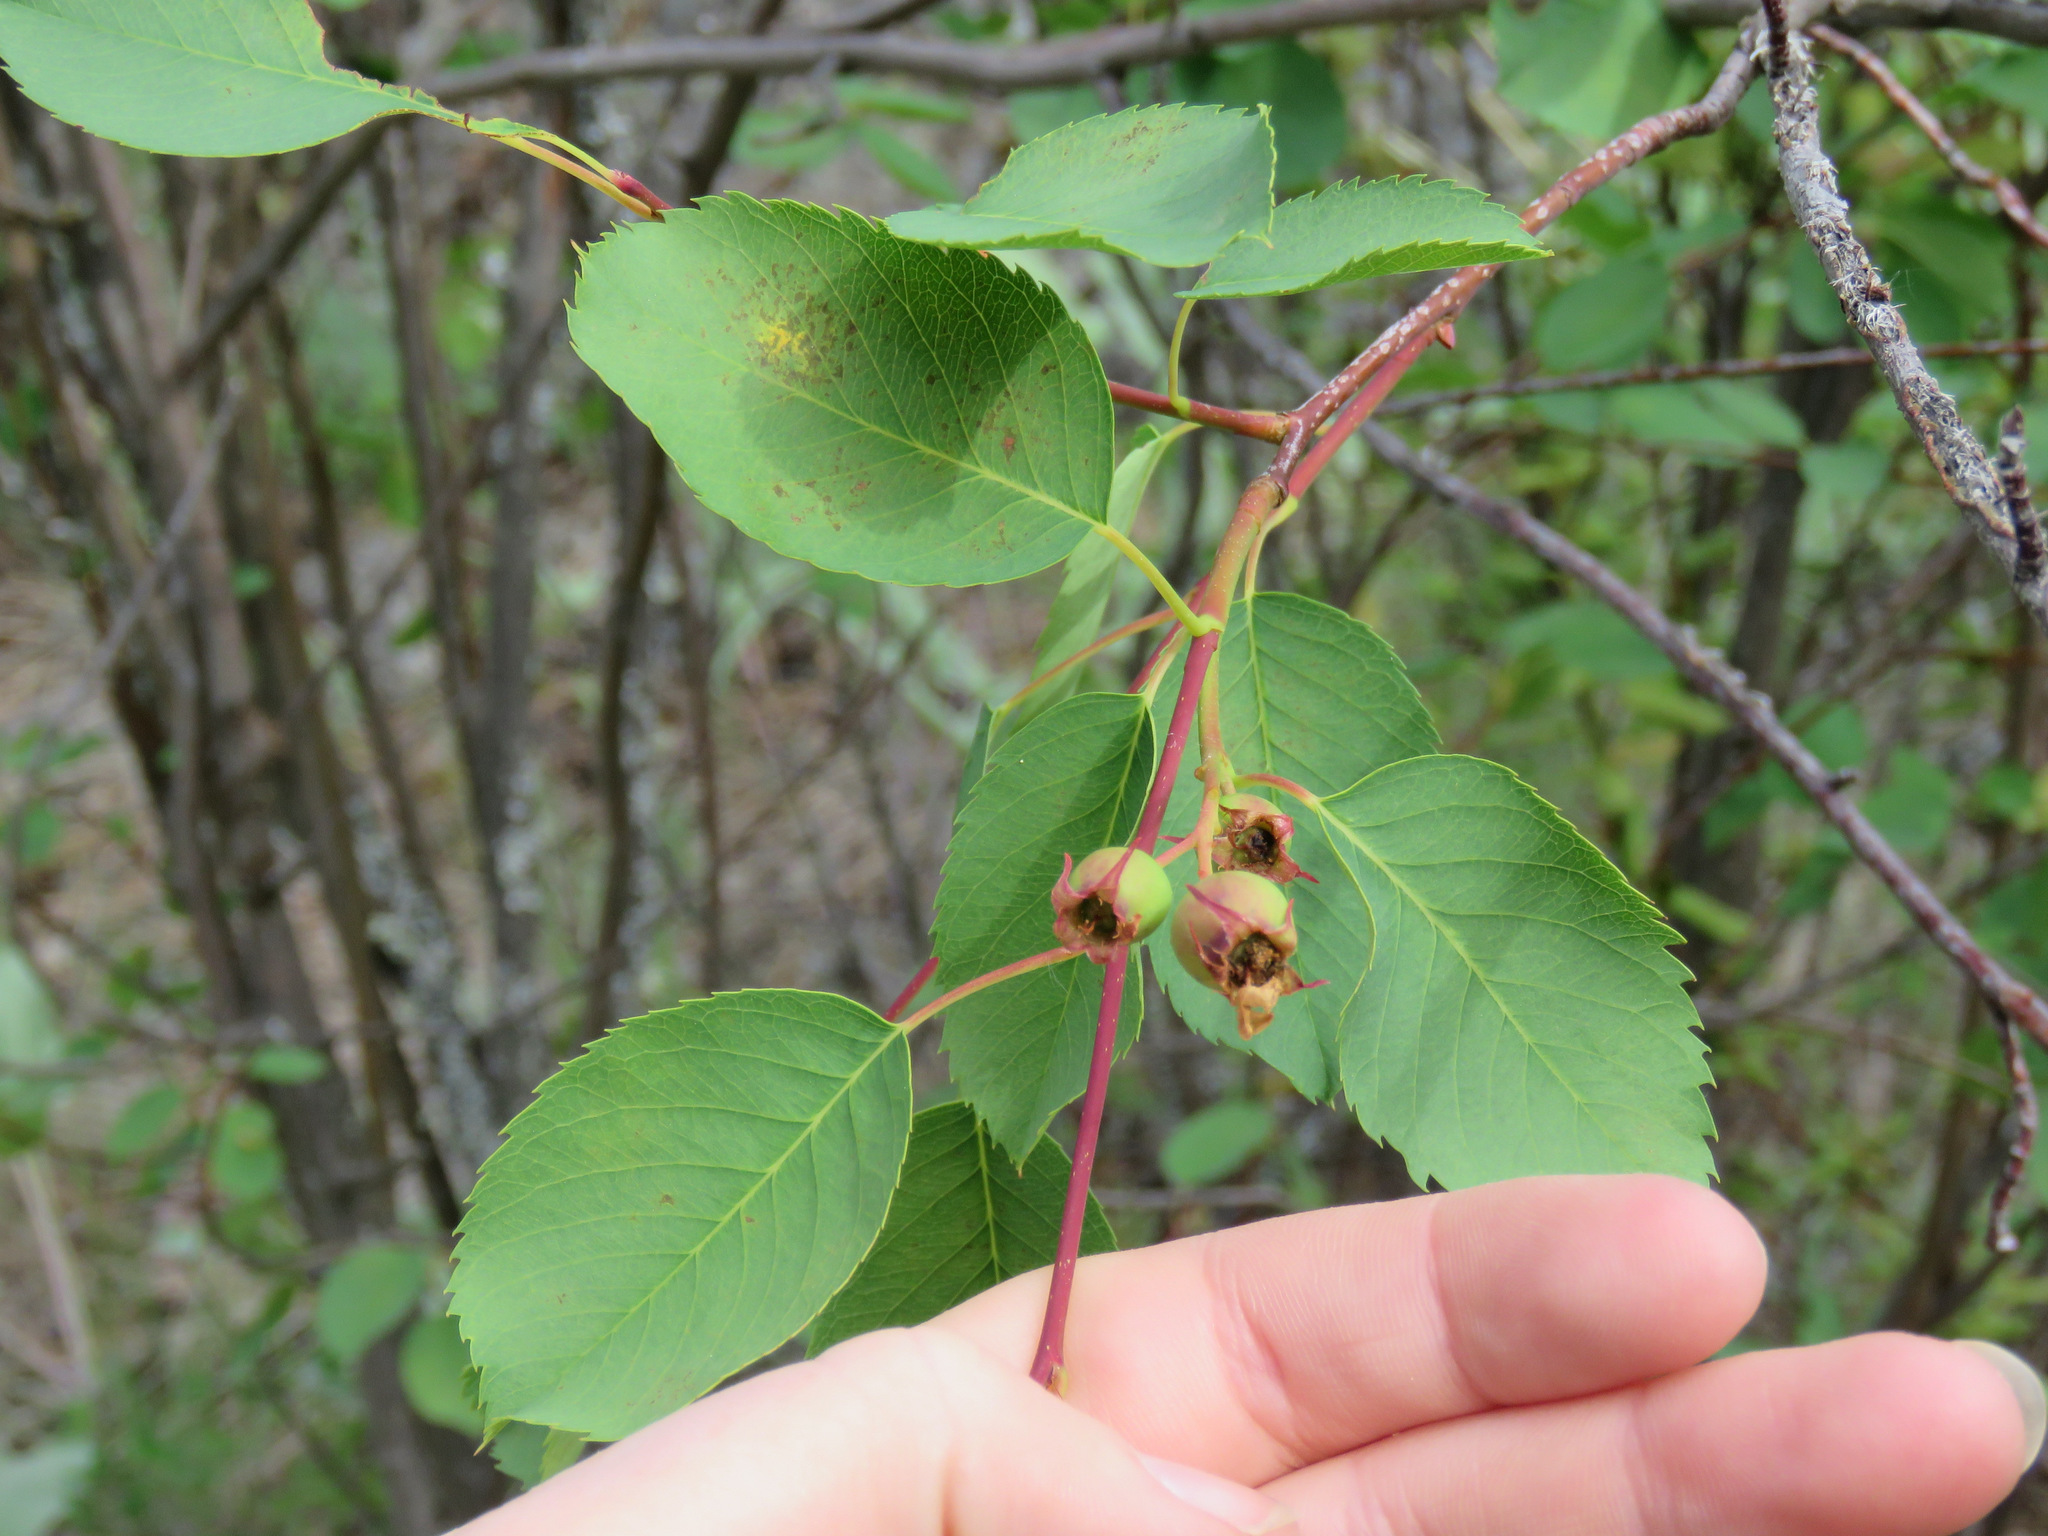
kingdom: Plantae
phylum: Tracheophyta
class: Magnoliopsida
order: Rosales
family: Rosaceae
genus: Amelanchier
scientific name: Amelanchier alnifolia
